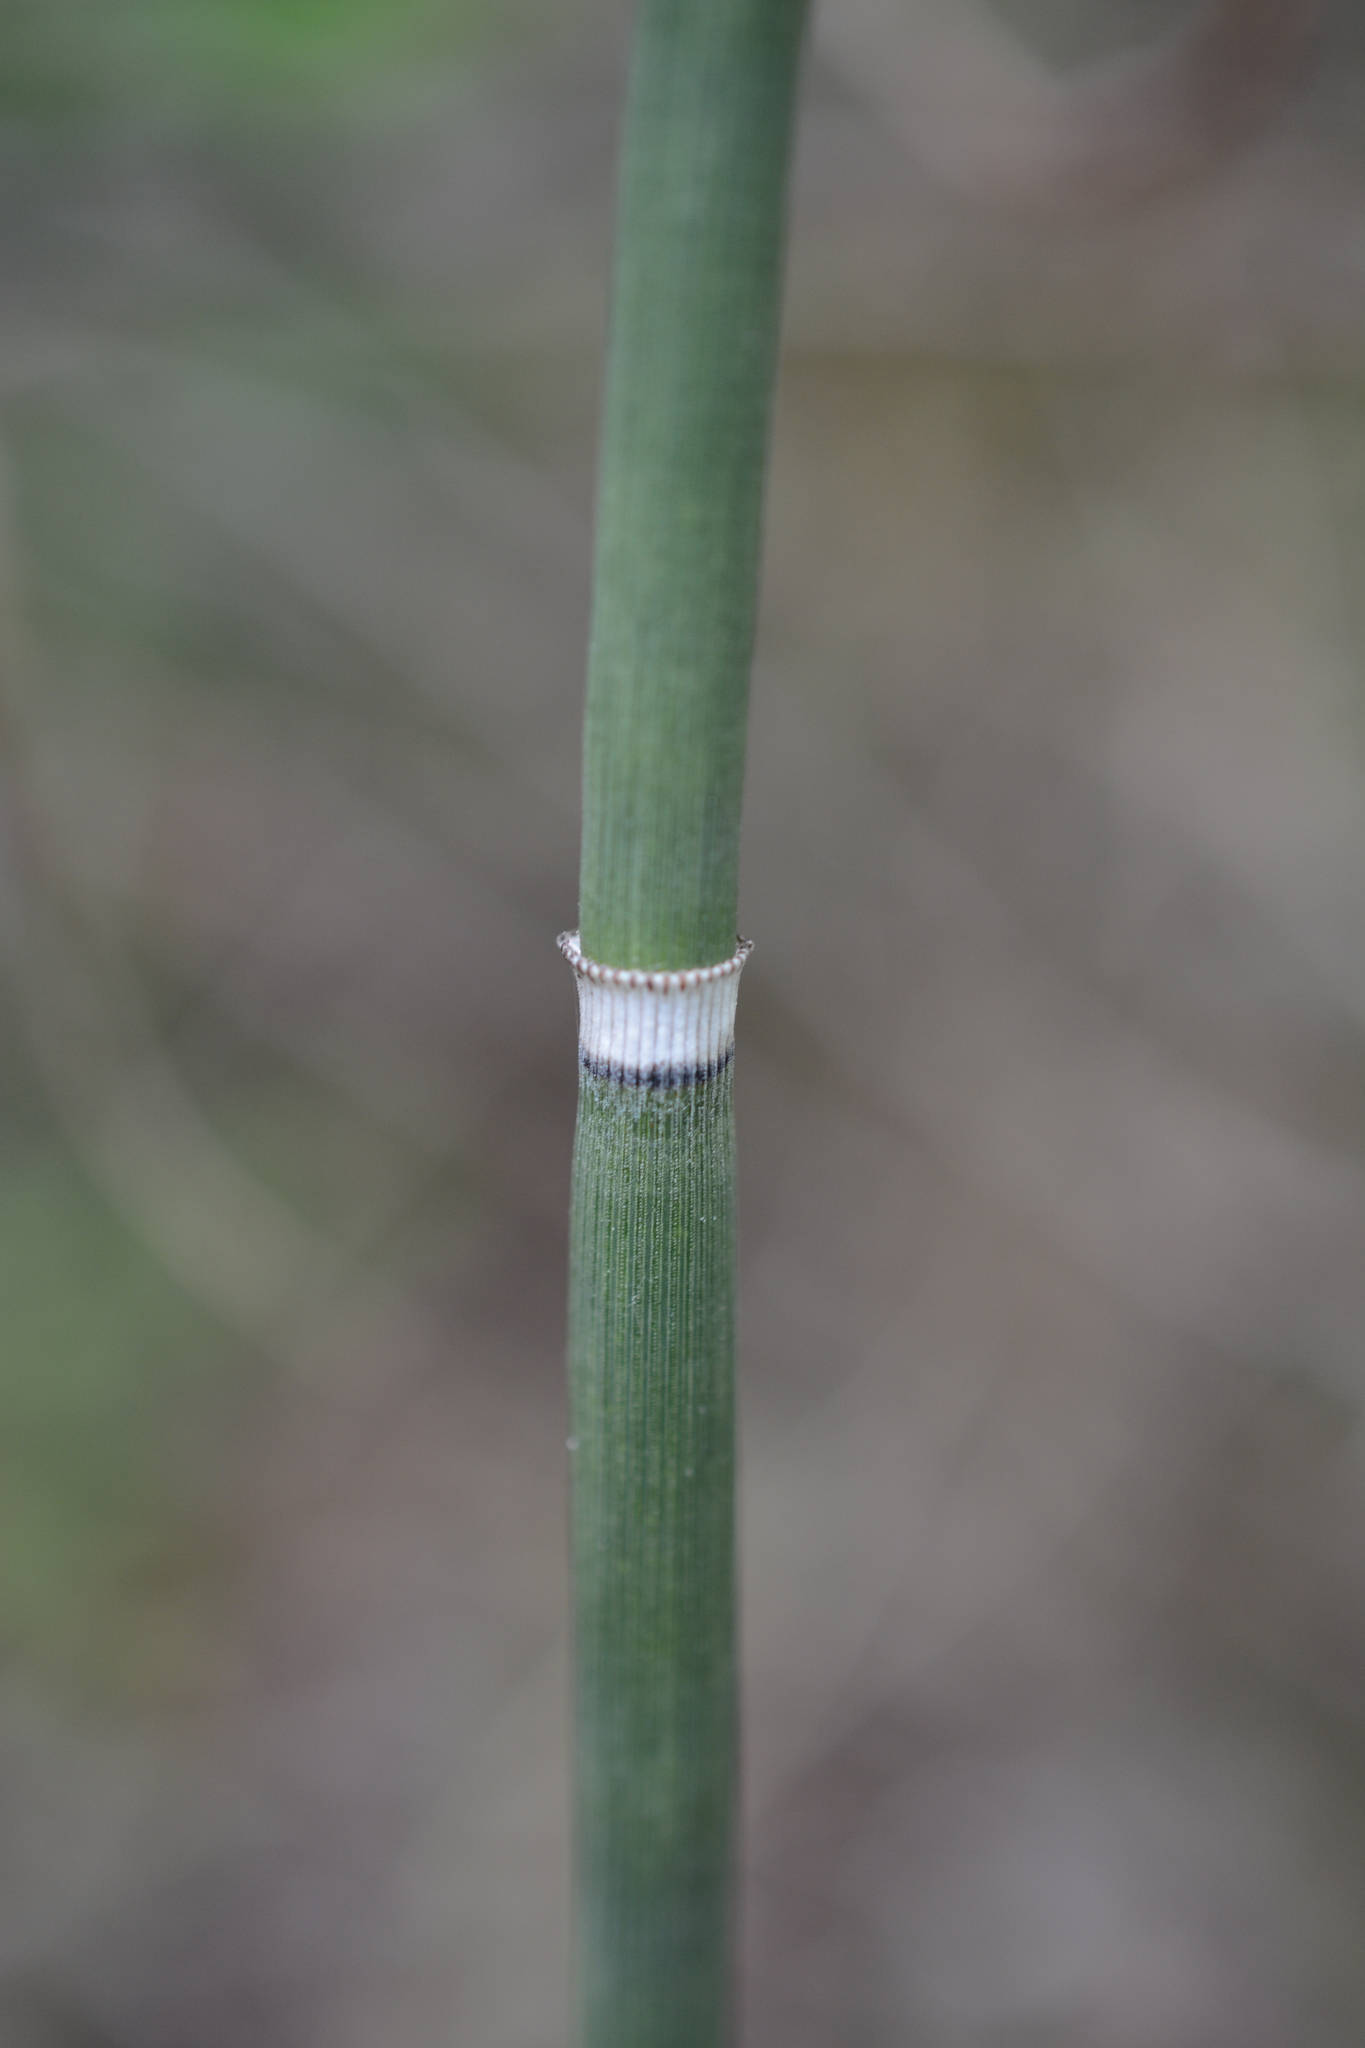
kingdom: Plantae
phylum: Tracheophyta
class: Polypodiopsida
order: Equisetales
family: Equisetaceae
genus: Equisetum
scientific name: Equisetum hyemale
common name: Rough horsetail
